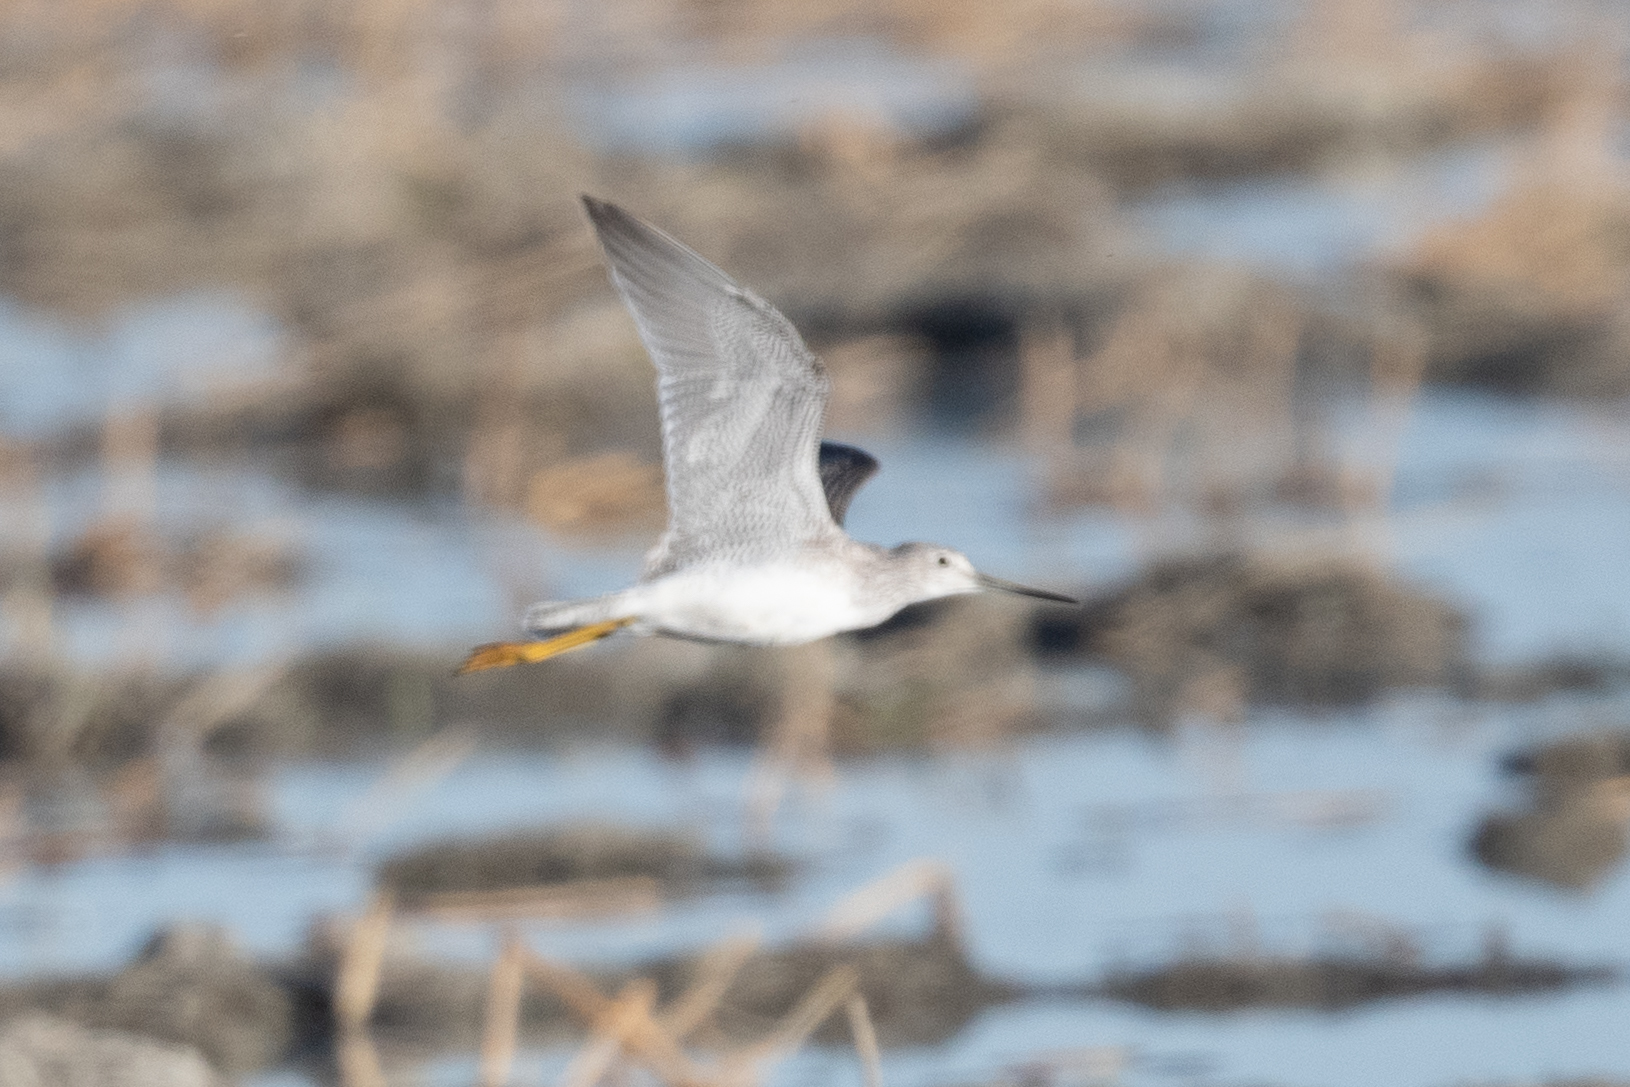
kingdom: Animalia
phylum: Chordata
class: Aves
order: Charadriiformes
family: Scolopacidae
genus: Tringa
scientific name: Tringa melanoleuca
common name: Greater yellowlegs
